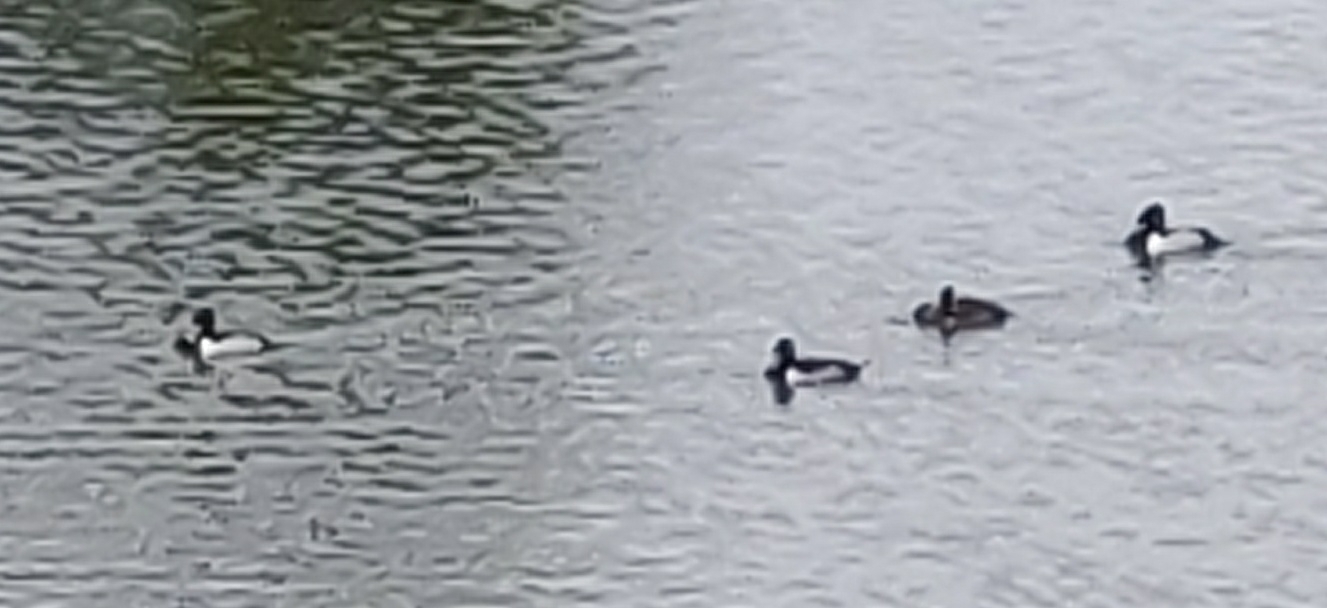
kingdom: Animalia
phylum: Chordata
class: Aves
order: Anseriformes
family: Anatidae
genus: Aythya
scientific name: Aythya collaris
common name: Ring-necked duck
